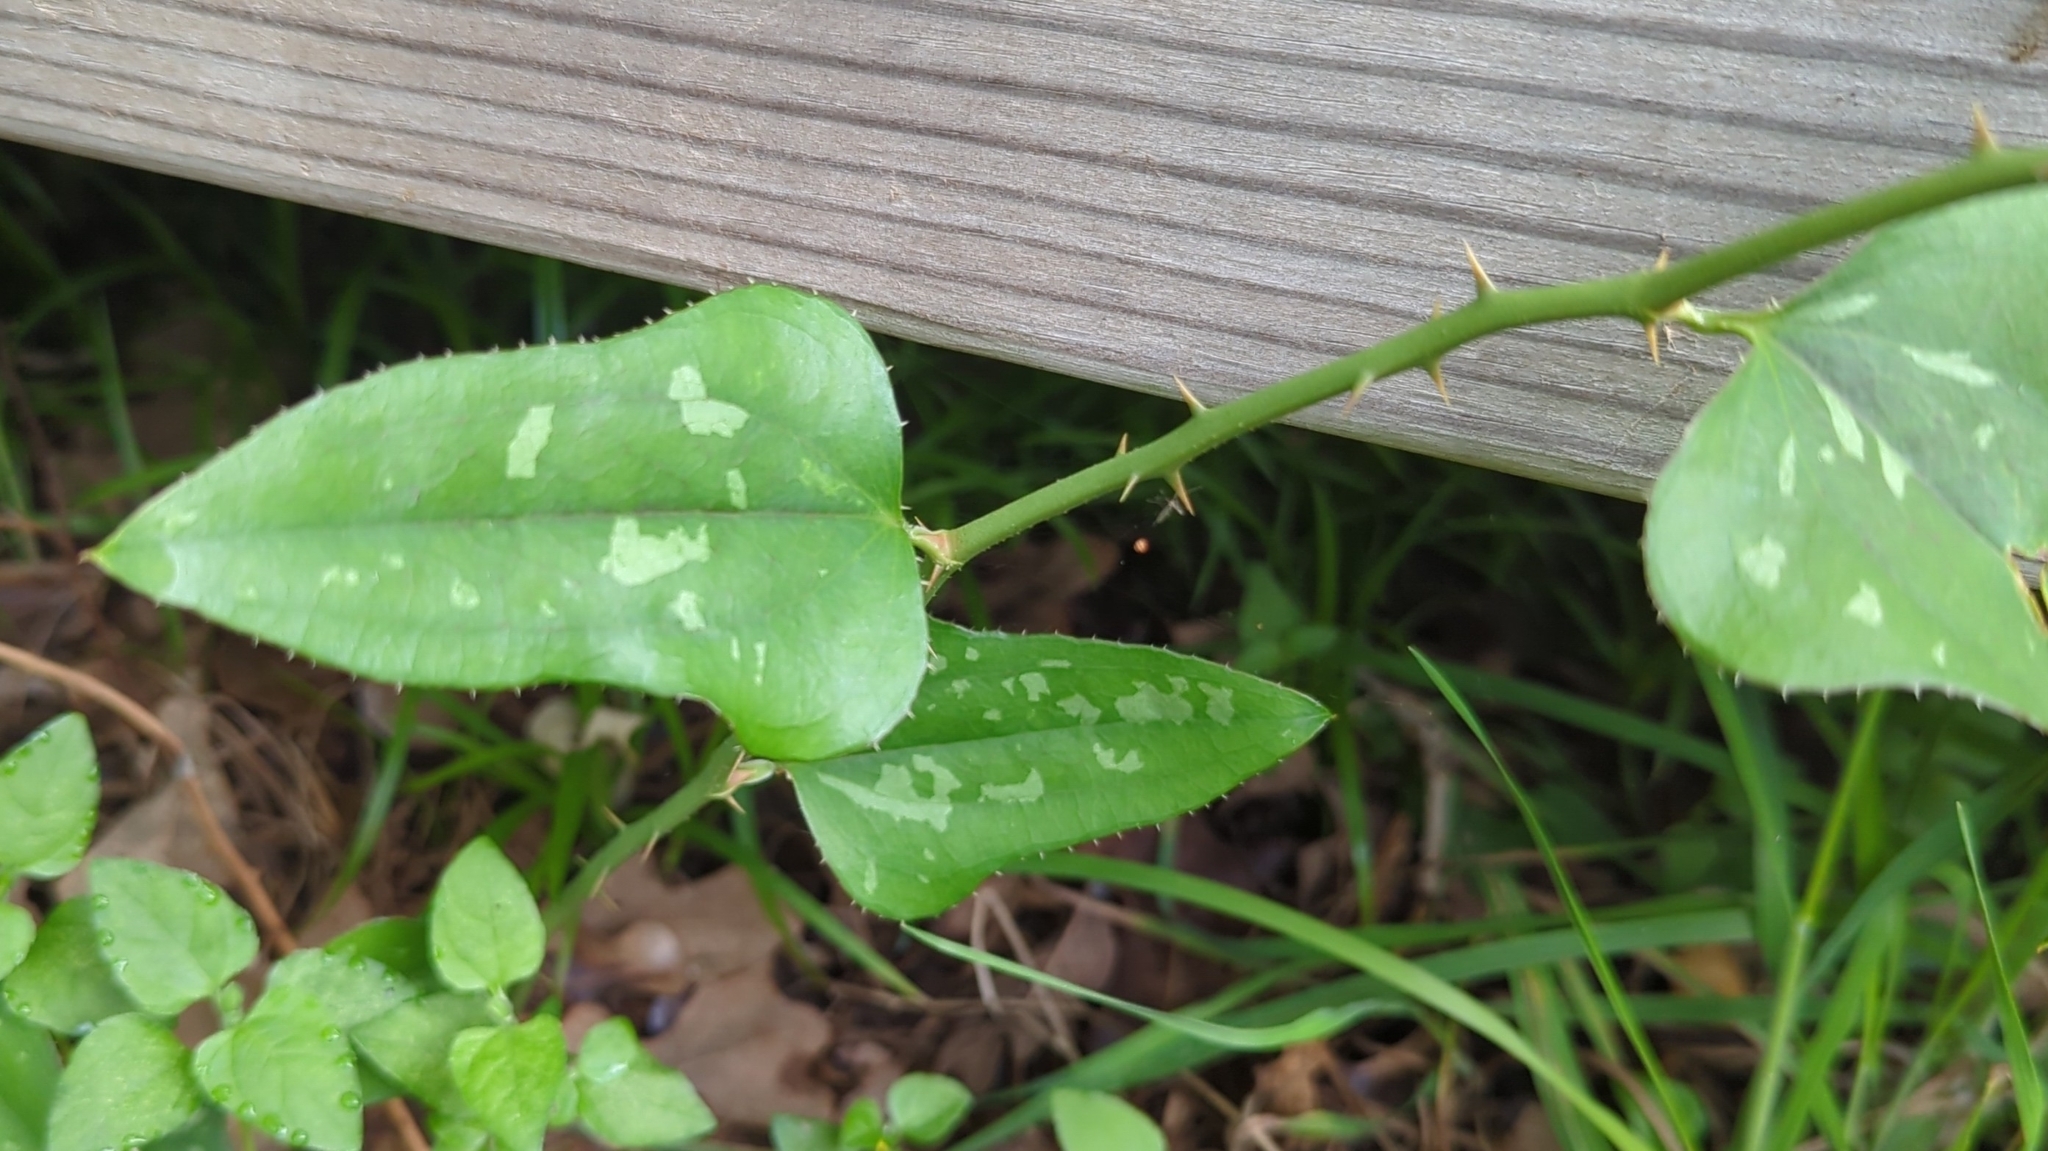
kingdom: Plantae
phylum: Tracheophyta
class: Liliopsida
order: Liliales
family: Smilacaceae
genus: Smilax
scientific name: Smilax bona-nox
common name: Catbrier
